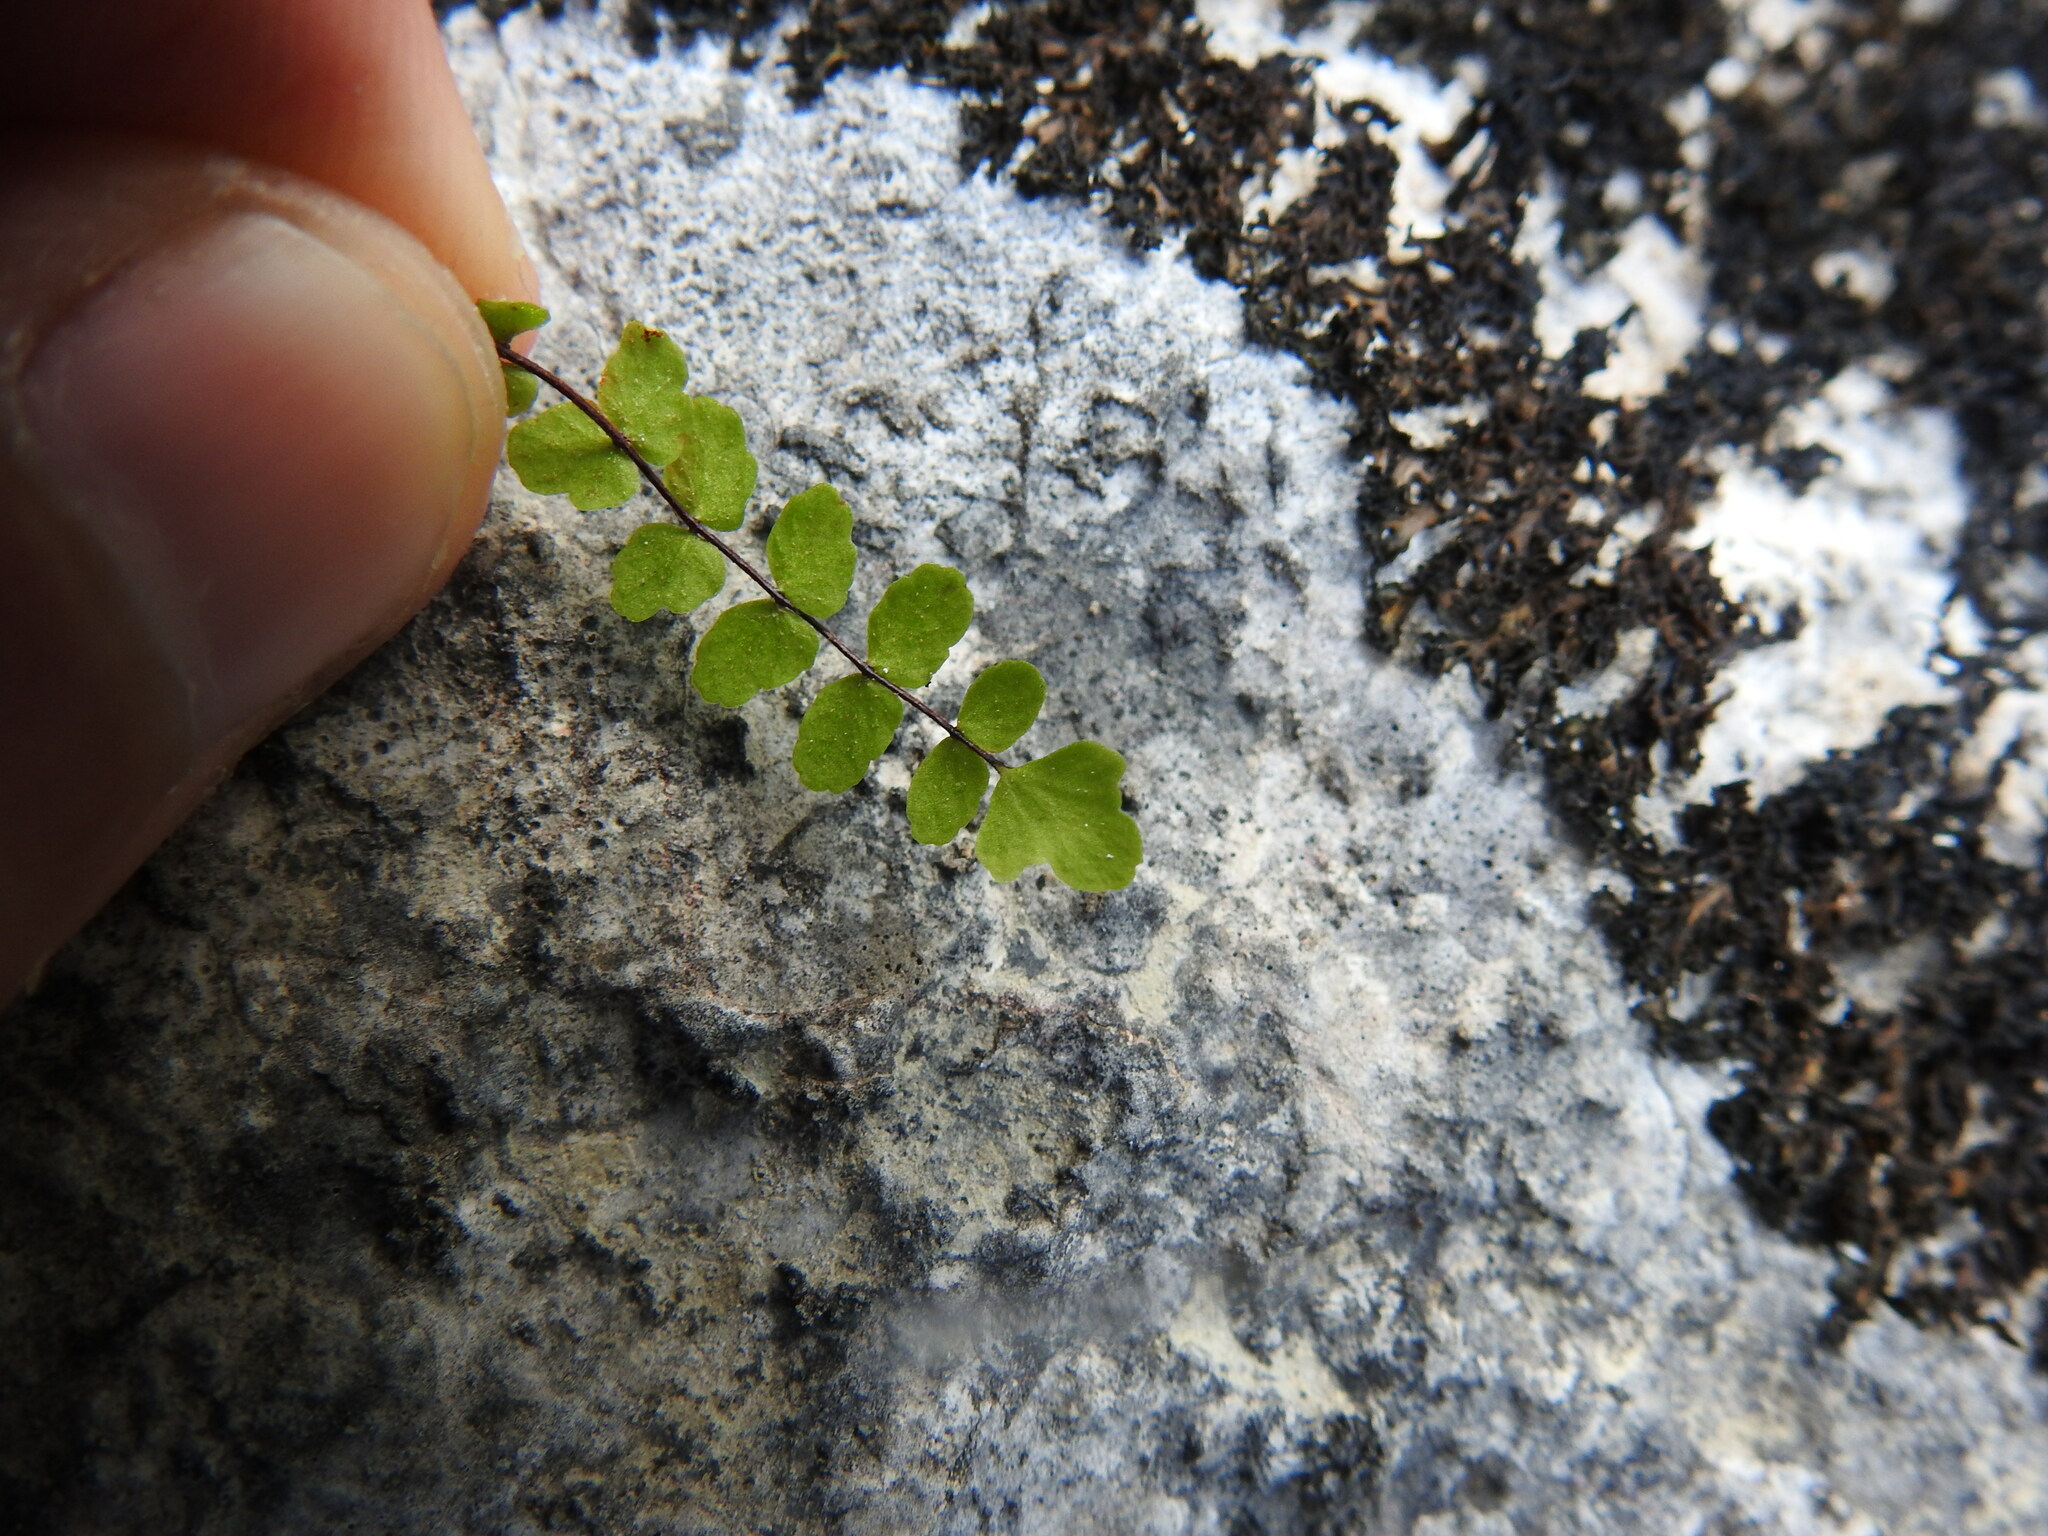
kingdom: Plantae
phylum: Tracheophyta
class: Polypodiopsida
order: Polypodiales
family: Aspleniaceae
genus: Asplenium
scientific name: Asplenium trichomanes
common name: Maidenhair spleenwort
